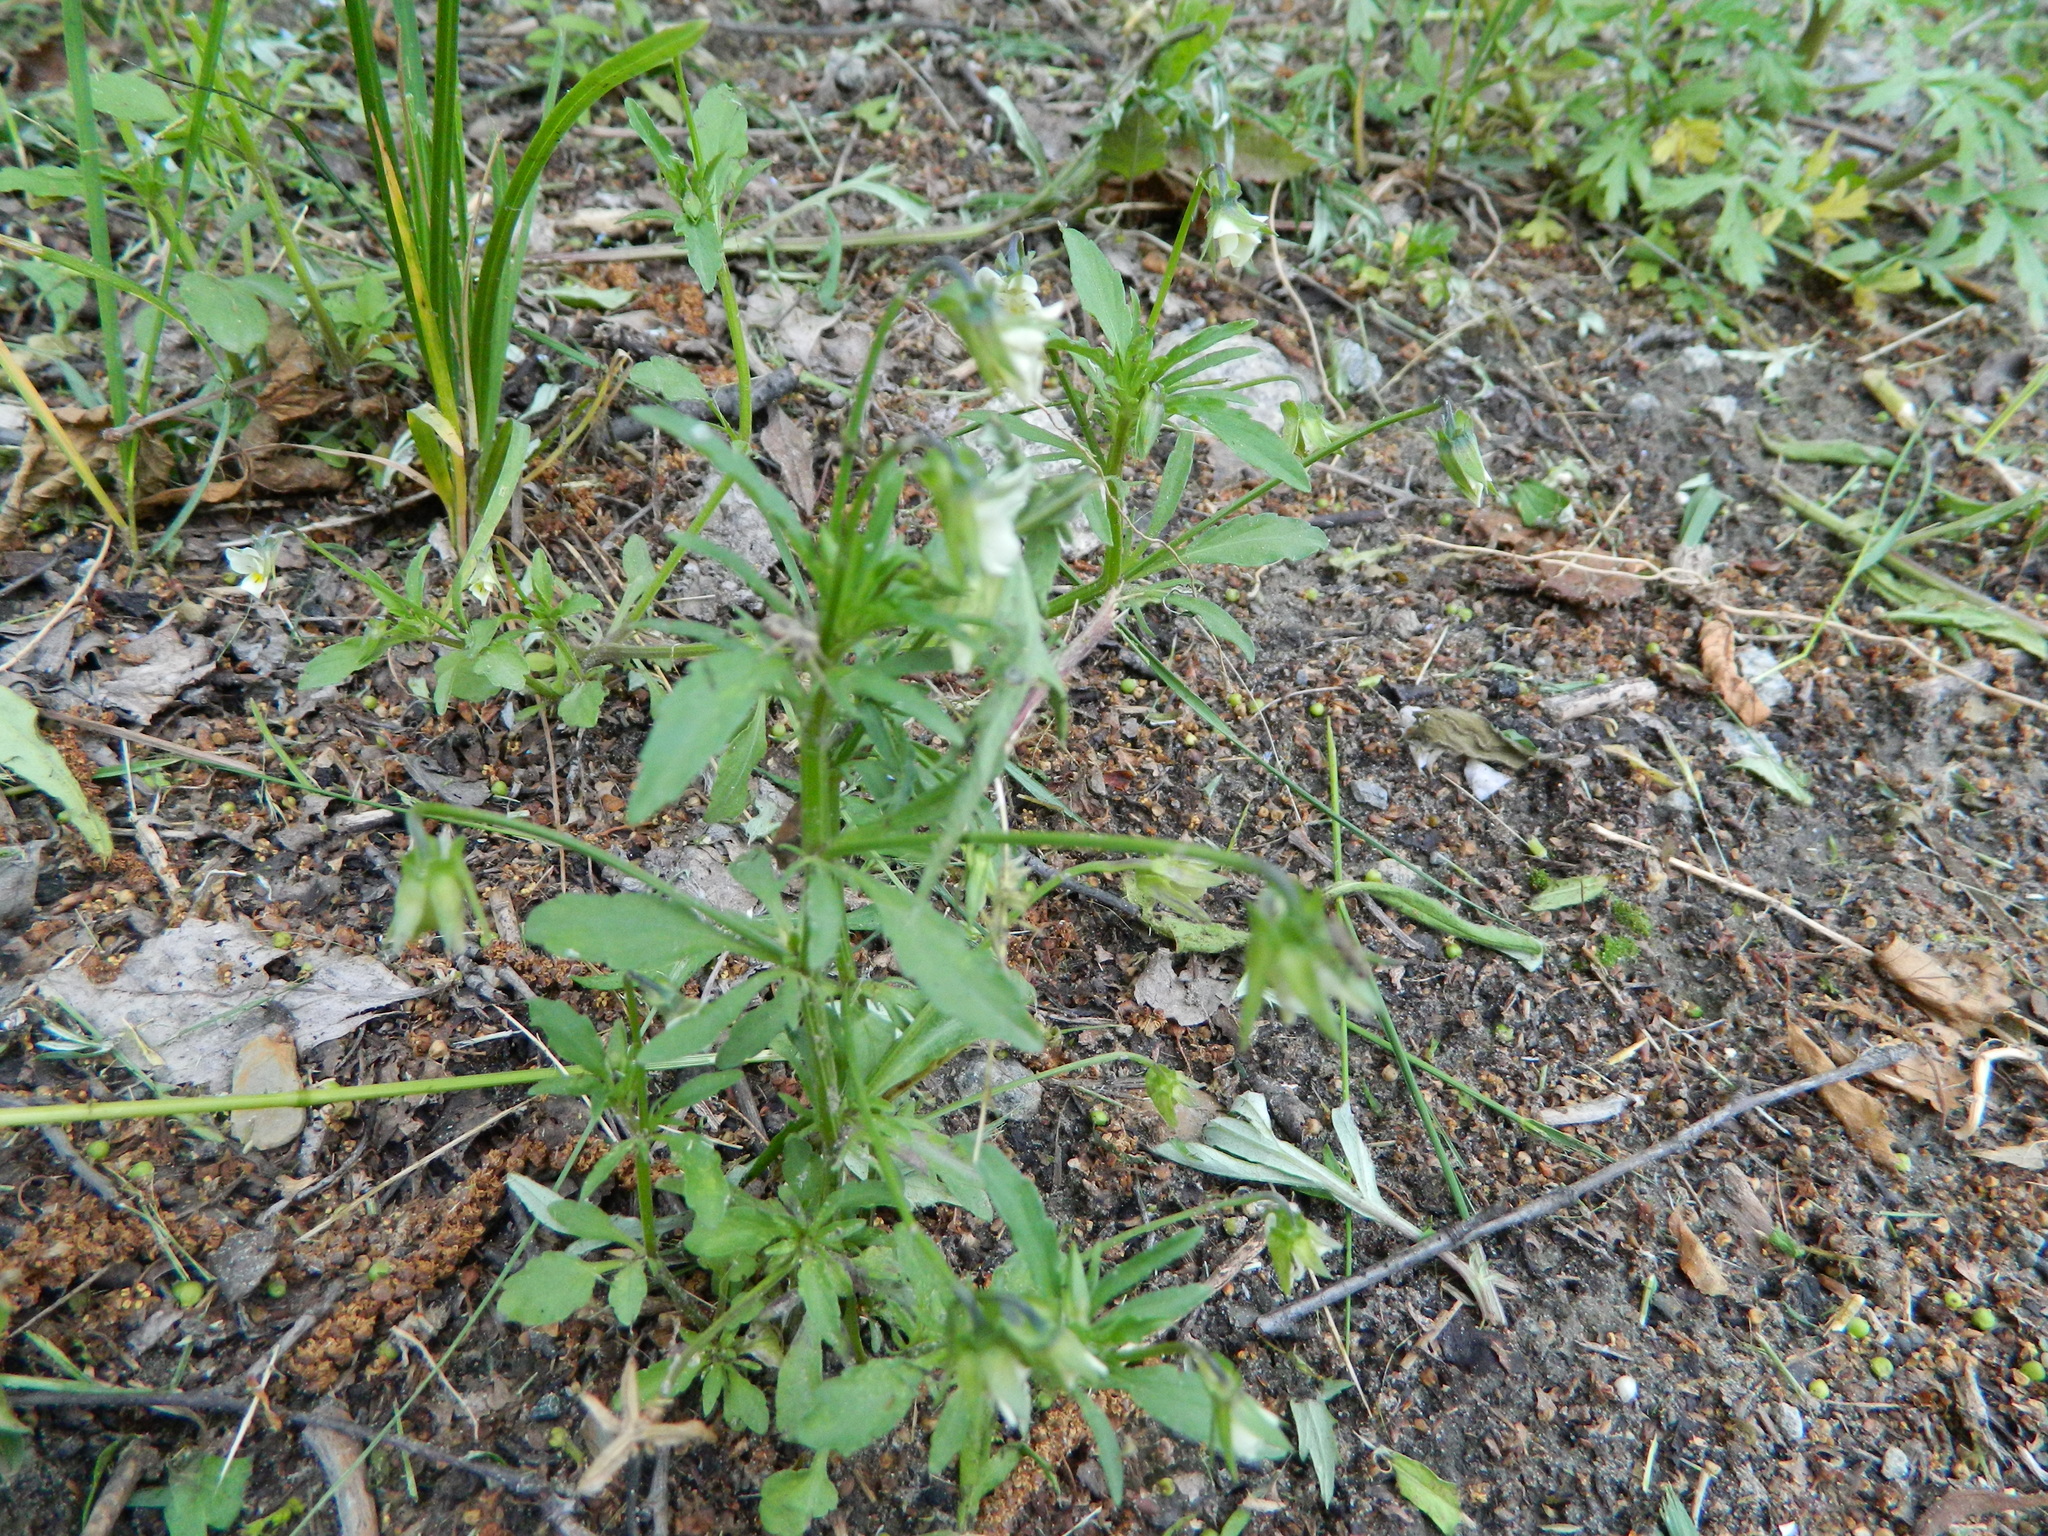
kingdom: Plantae
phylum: Tracheophyta
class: Magnoliopsida
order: Malpighiales
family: Violaceae
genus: Viola
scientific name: Viola arvensis
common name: Field pansy
